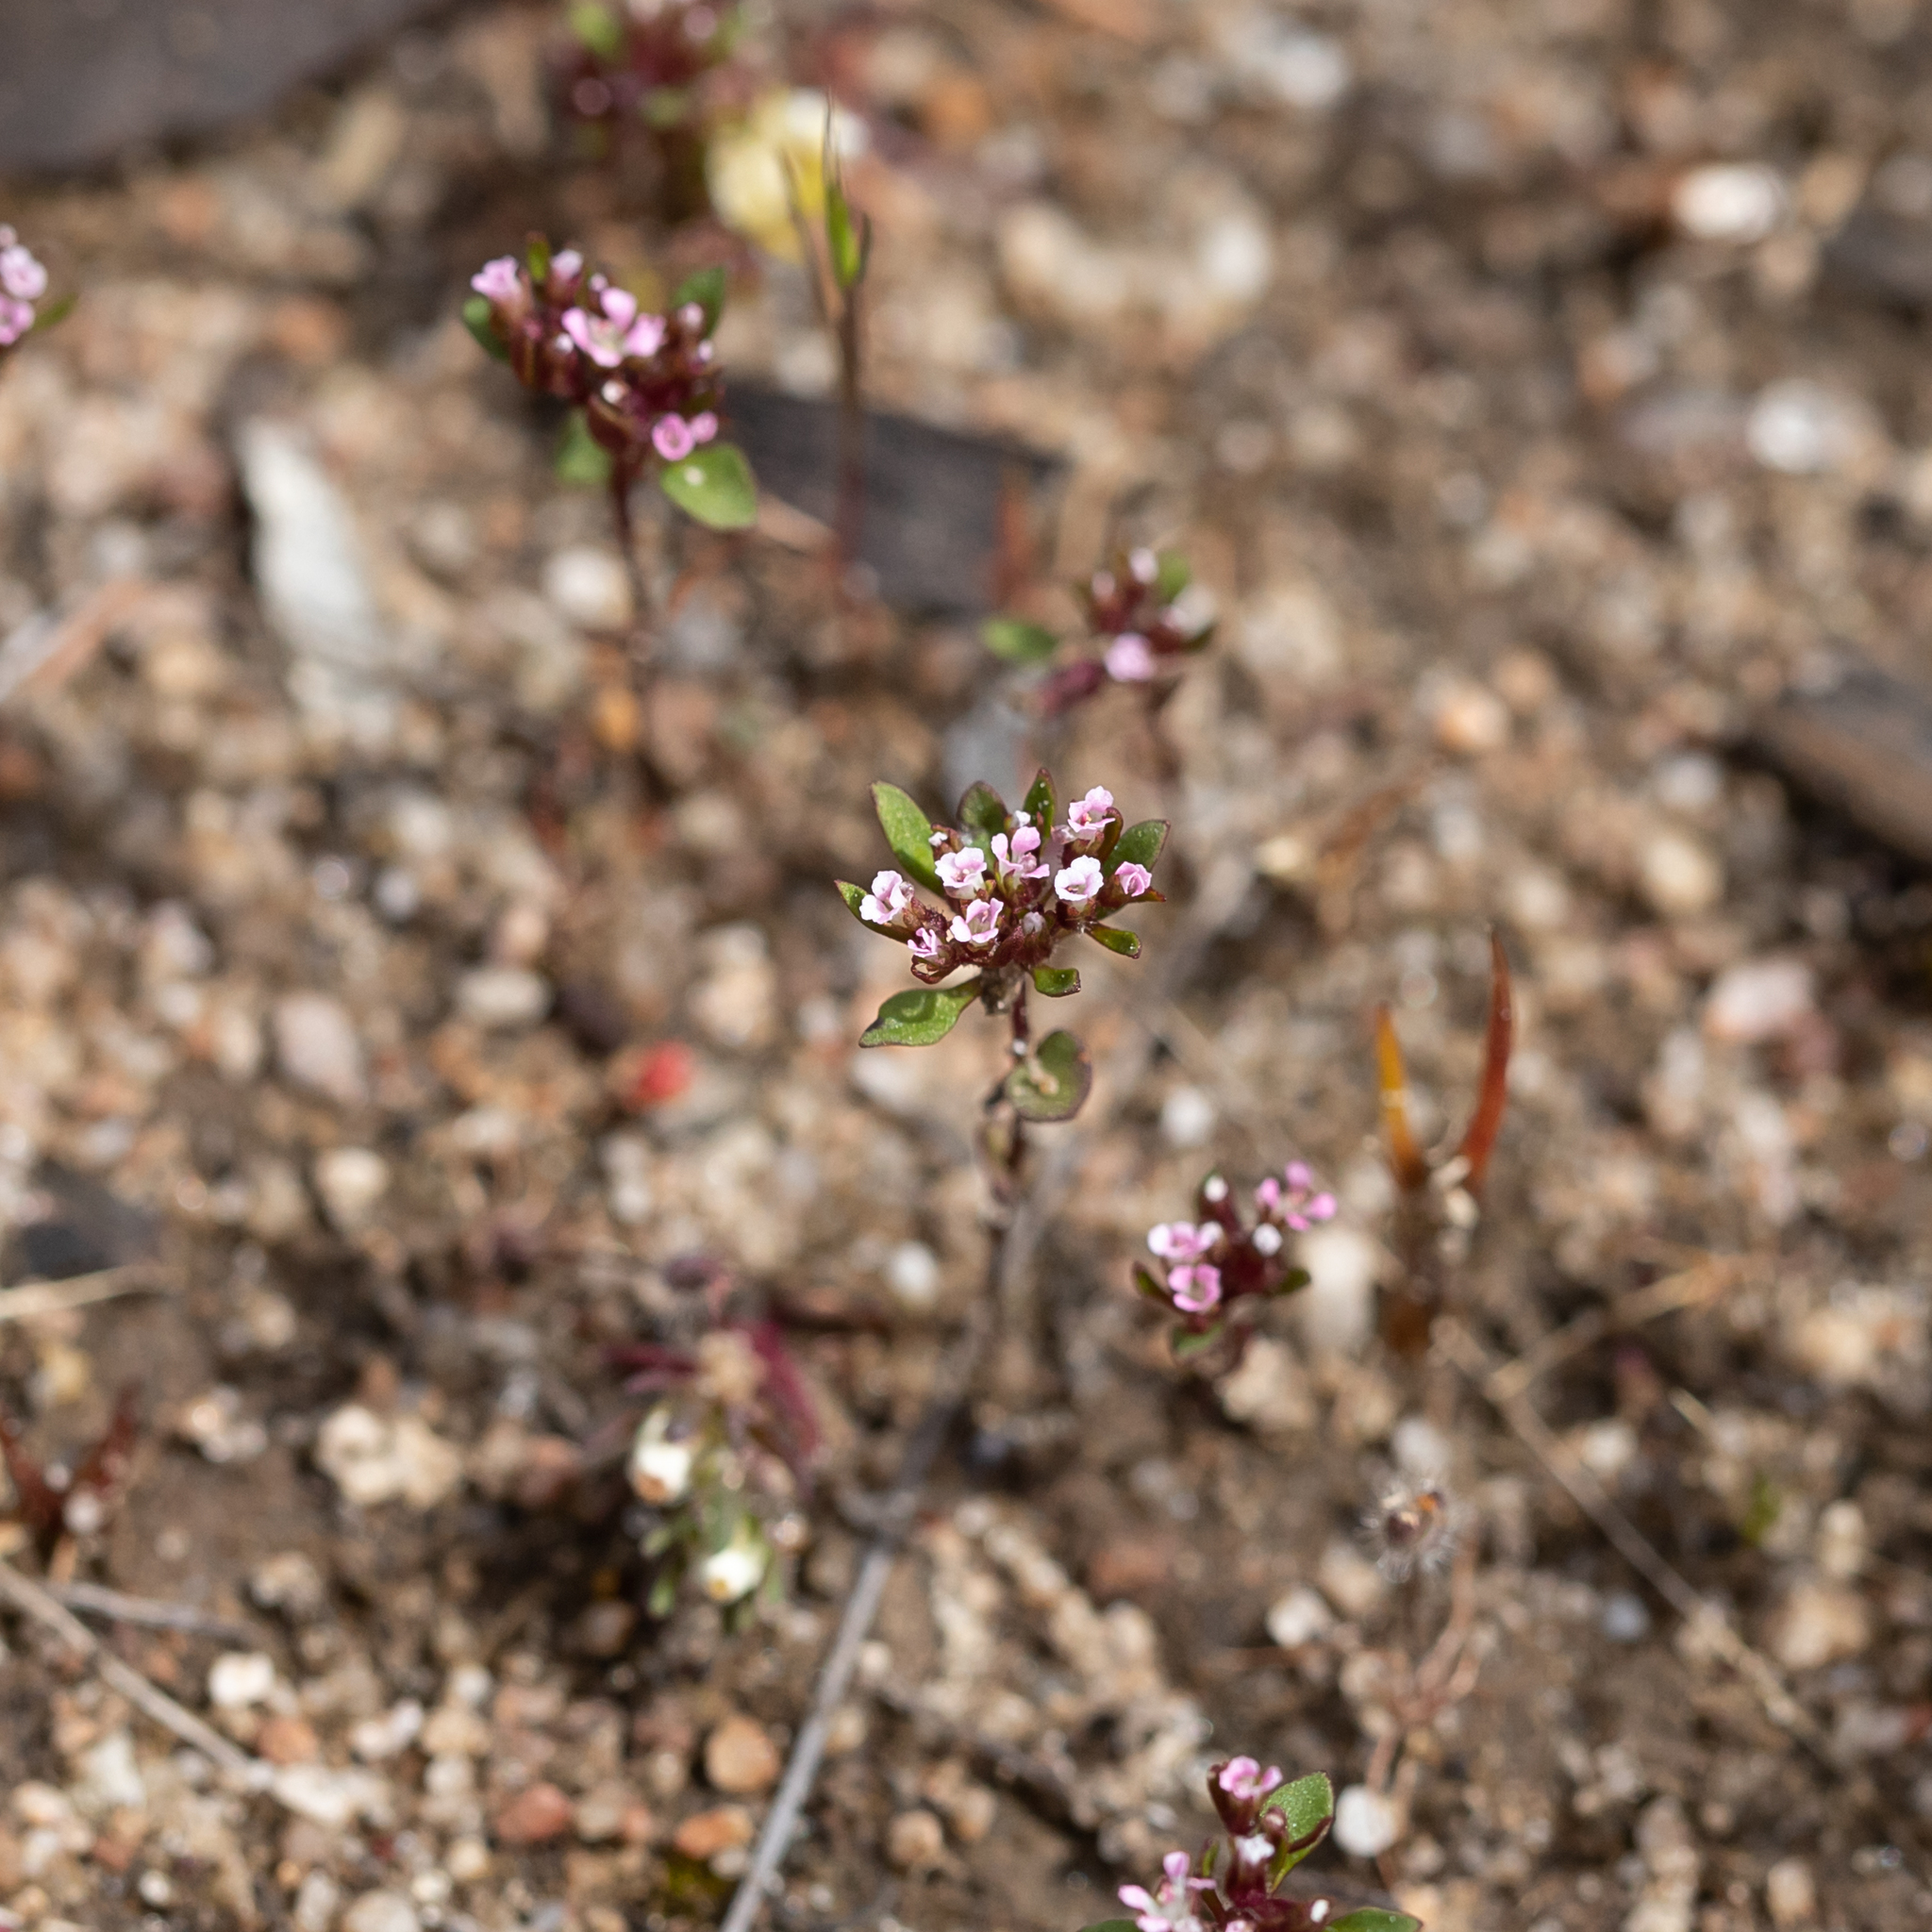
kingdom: Plantae
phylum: Tracheophyta
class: Magnoliopsida
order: Asterales
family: Stylidiaceae
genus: Levenhookia
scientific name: Levenhookia pusilla
